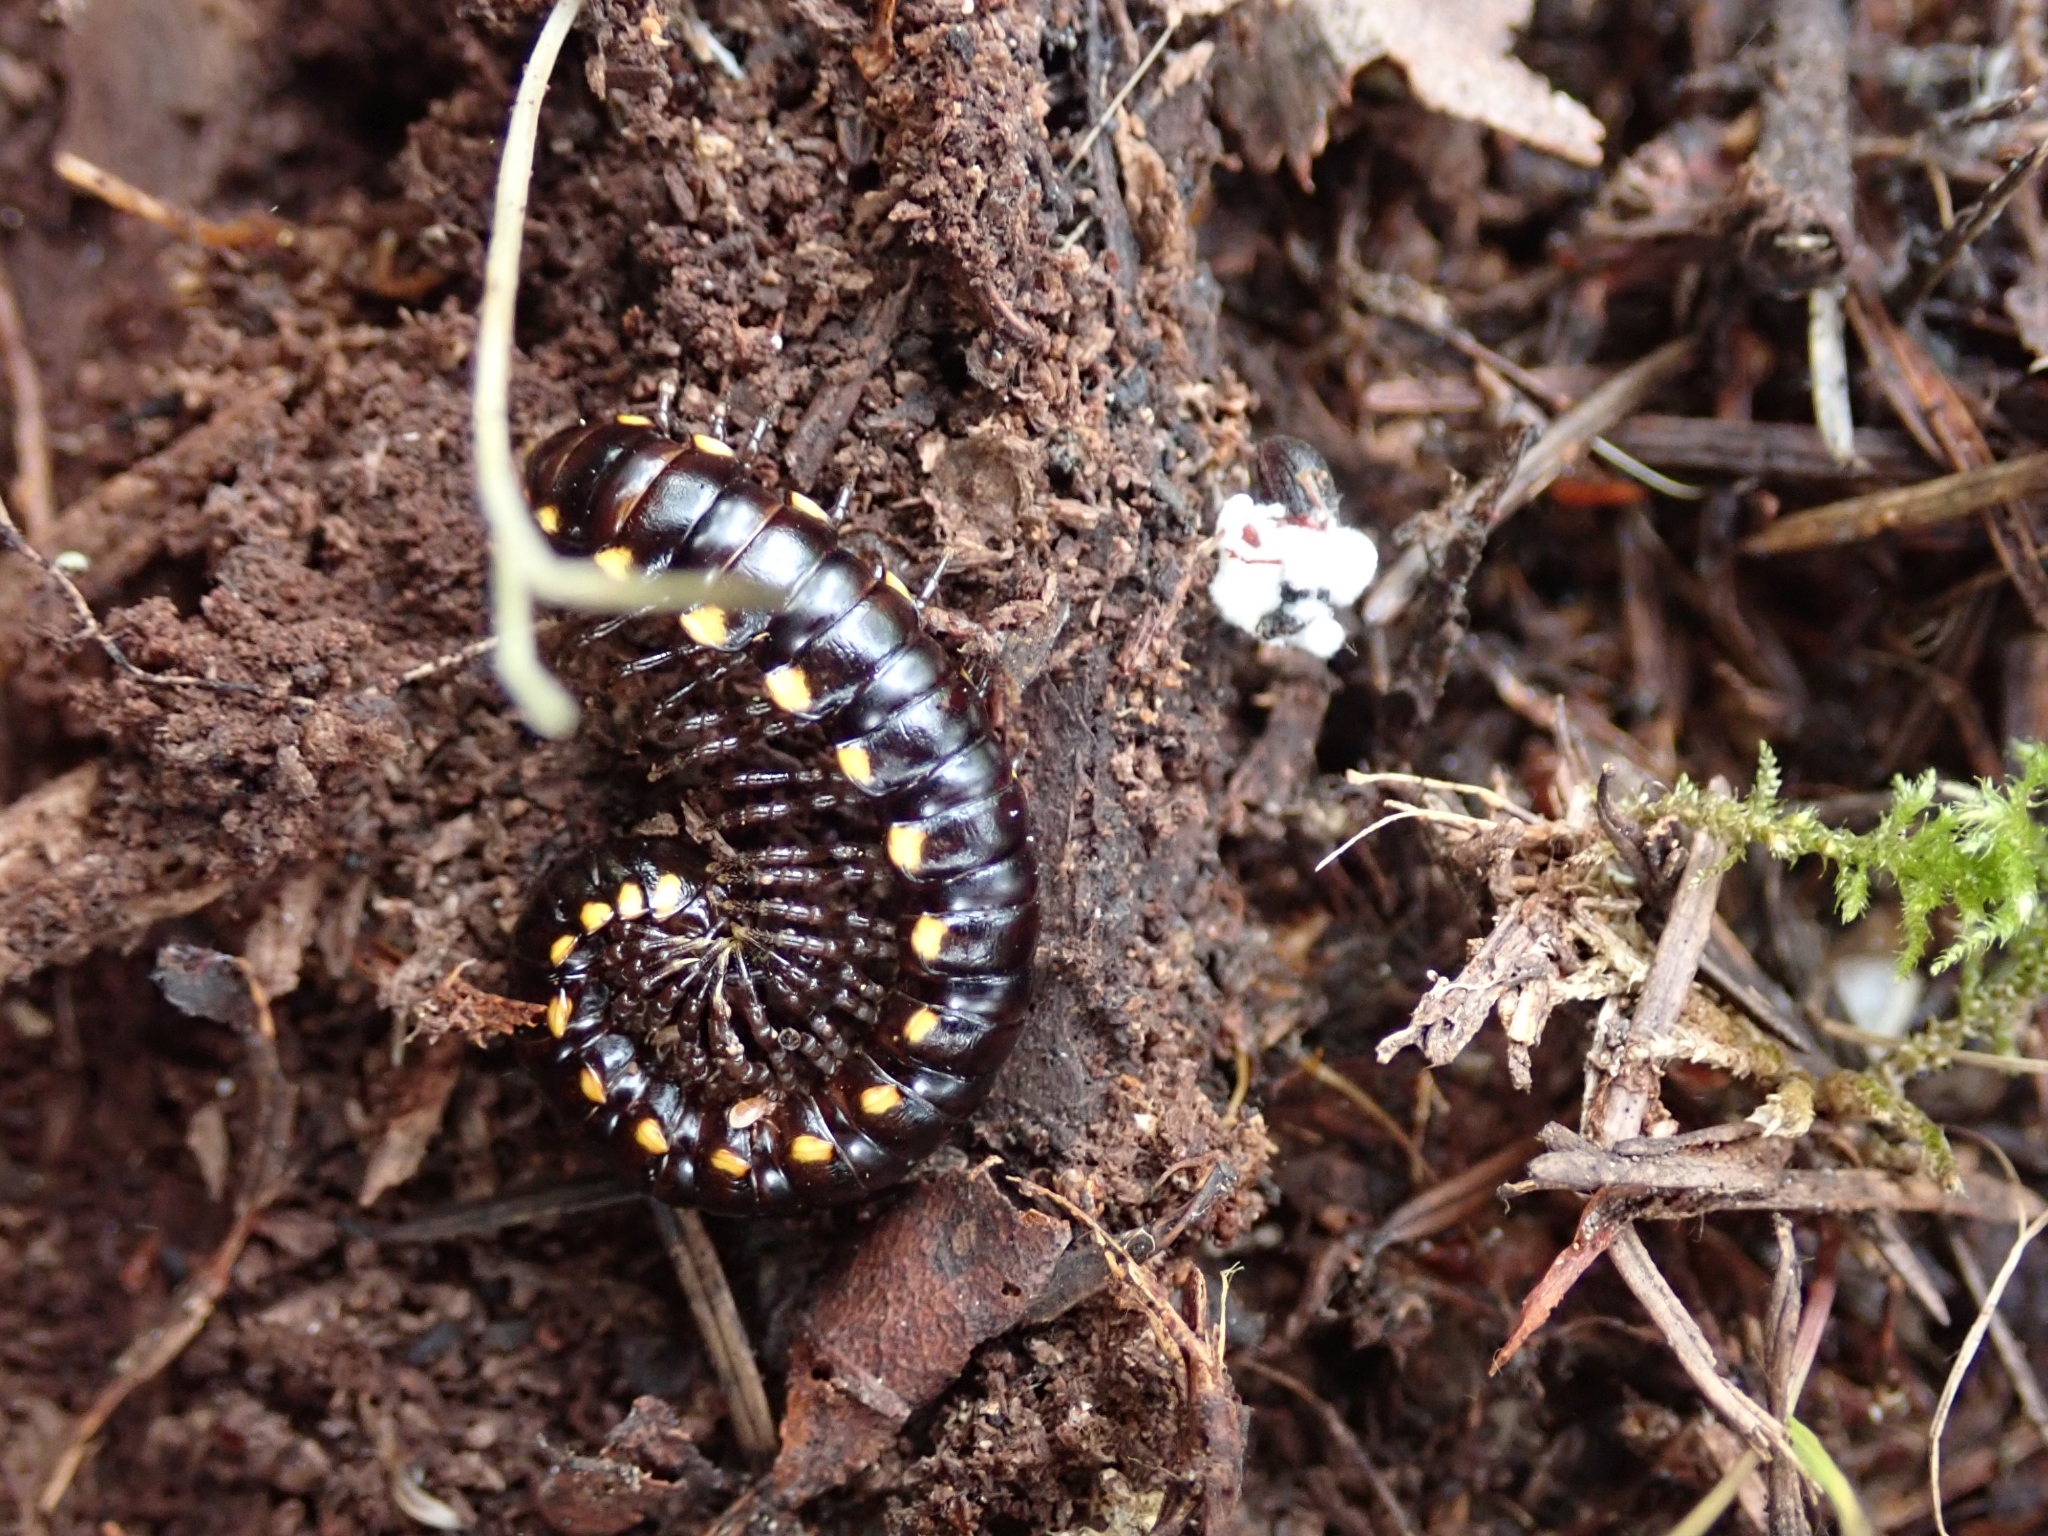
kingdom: Animalia
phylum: Arthropoda
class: Diplopoda
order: Polydesmida
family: Xystodesmidae
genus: Harpaphe
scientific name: Harpaphe haydeniana
